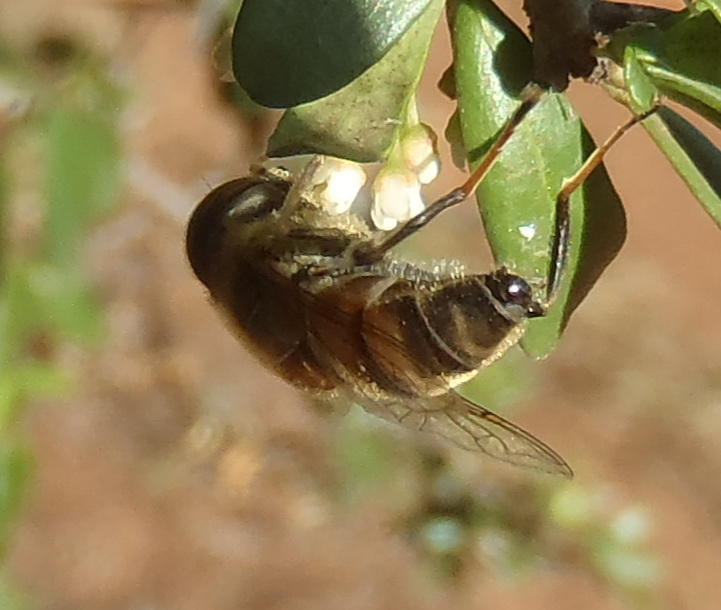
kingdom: Animalia
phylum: Arthropoda
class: Insecta
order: Diptera
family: Syrphidae
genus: Eristalinus
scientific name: Eristalinus quinquelineatus
